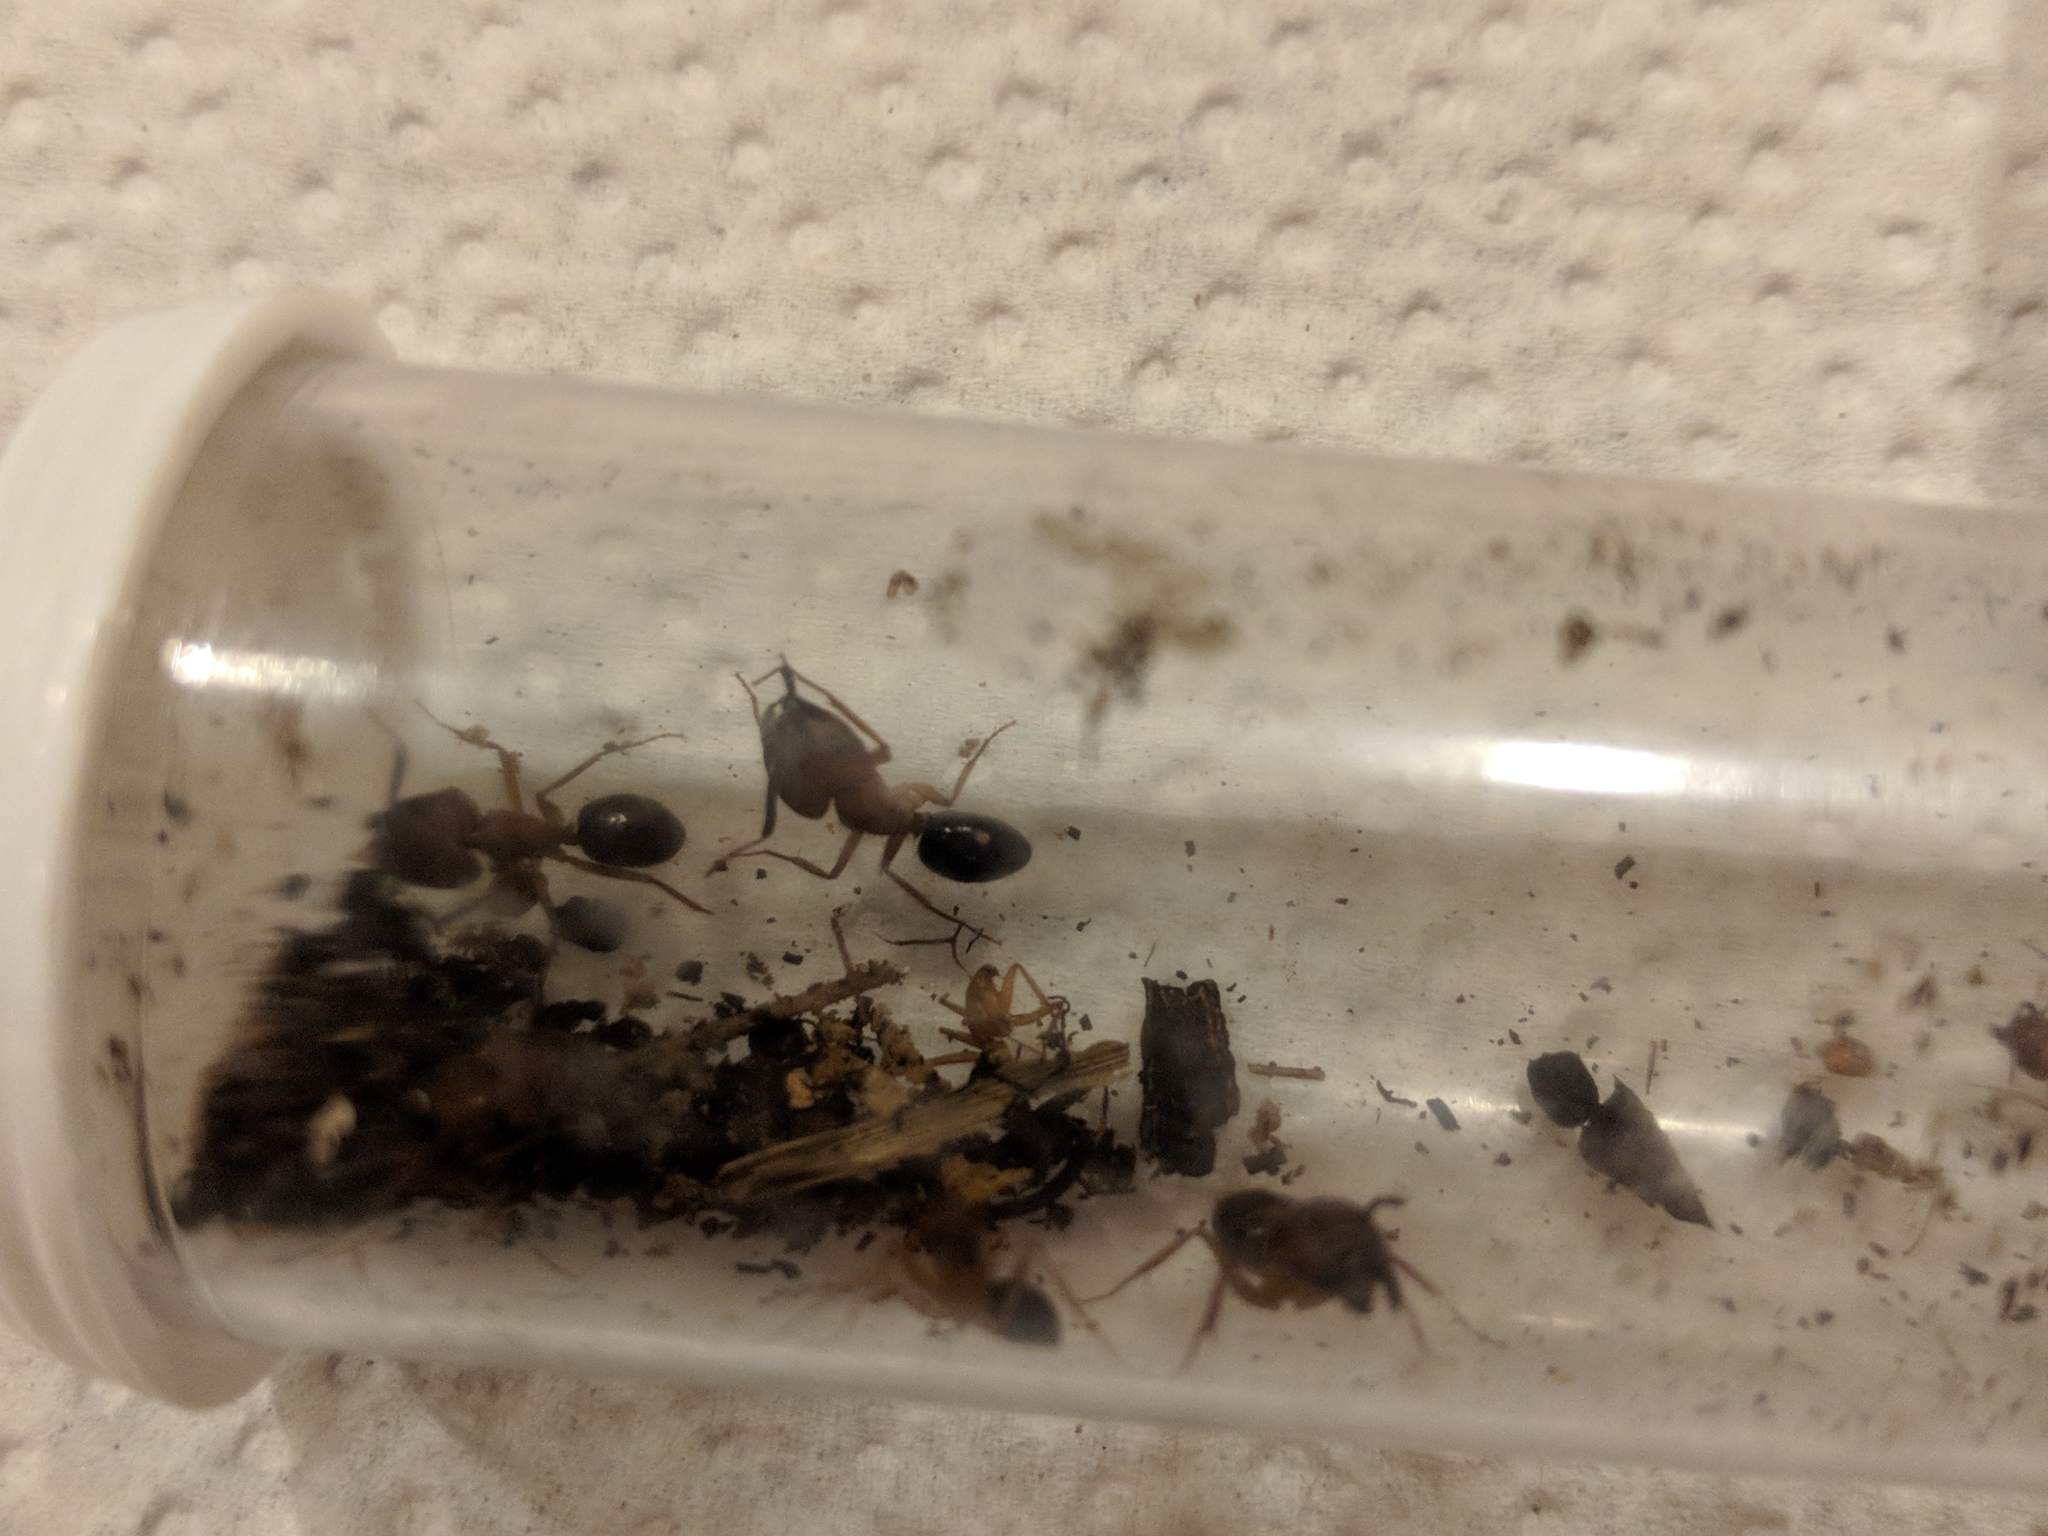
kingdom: Animalia
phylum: Arthropoda
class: Insecta
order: Hymenoptera
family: Formicidae
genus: Camponotus
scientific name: Camponotus floridanus
